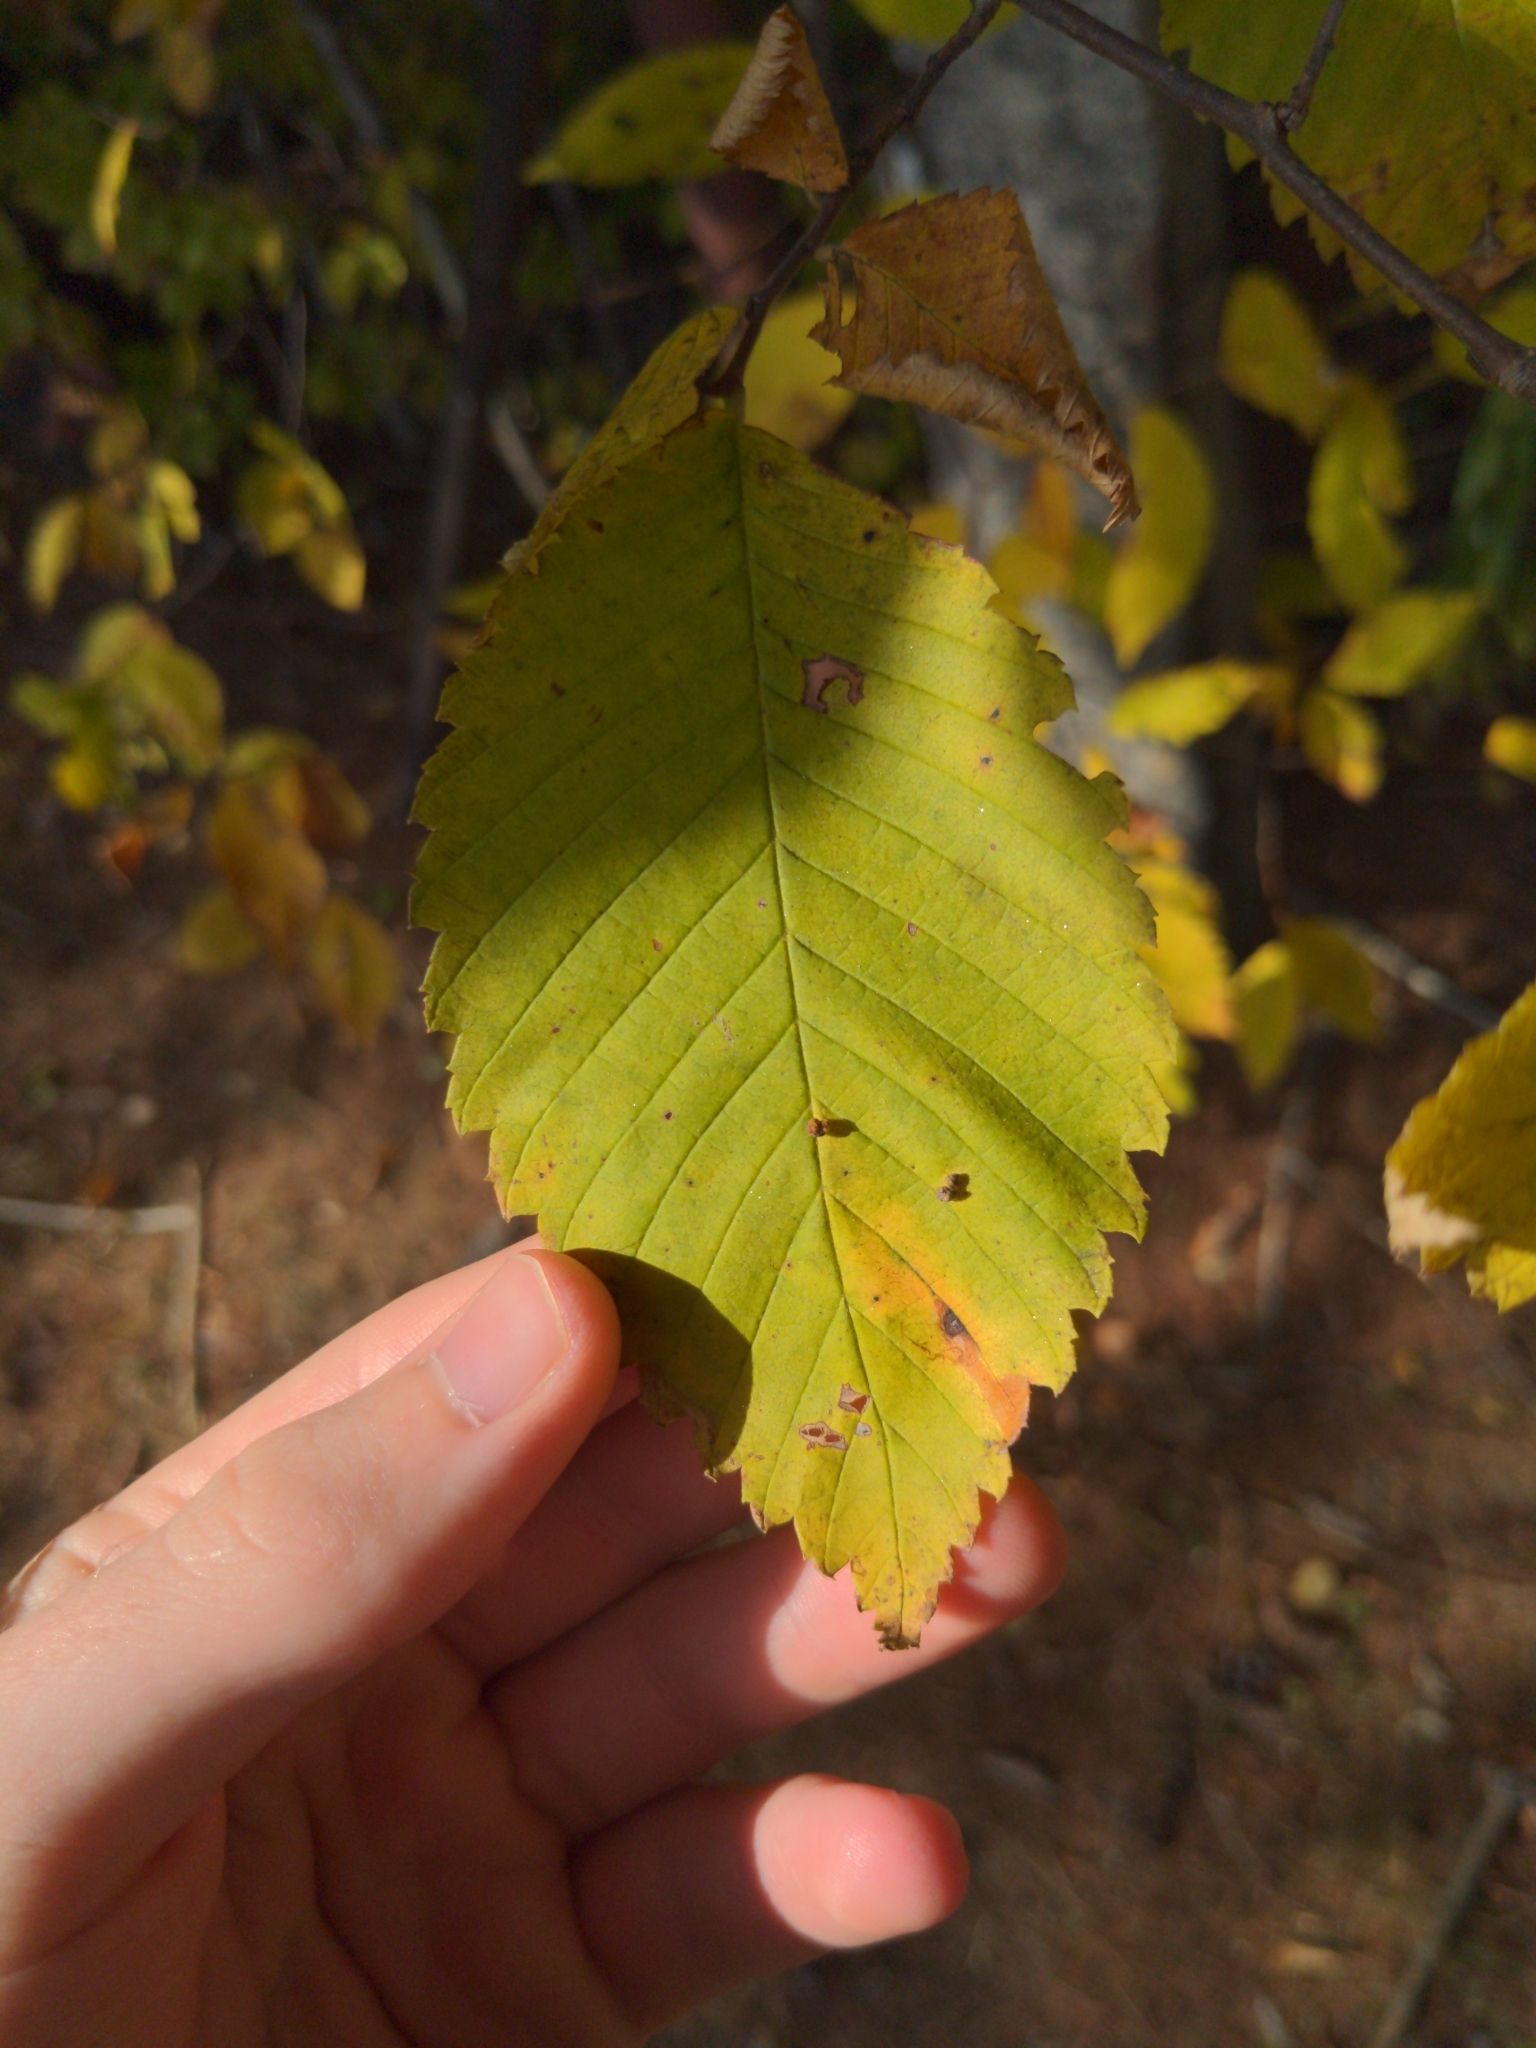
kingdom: Plantae
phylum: Tracheophyta
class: Magnoliopsida
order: Rosales
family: Ulmaceae
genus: Ulmus
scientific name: Ulmus americana
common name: American elm
